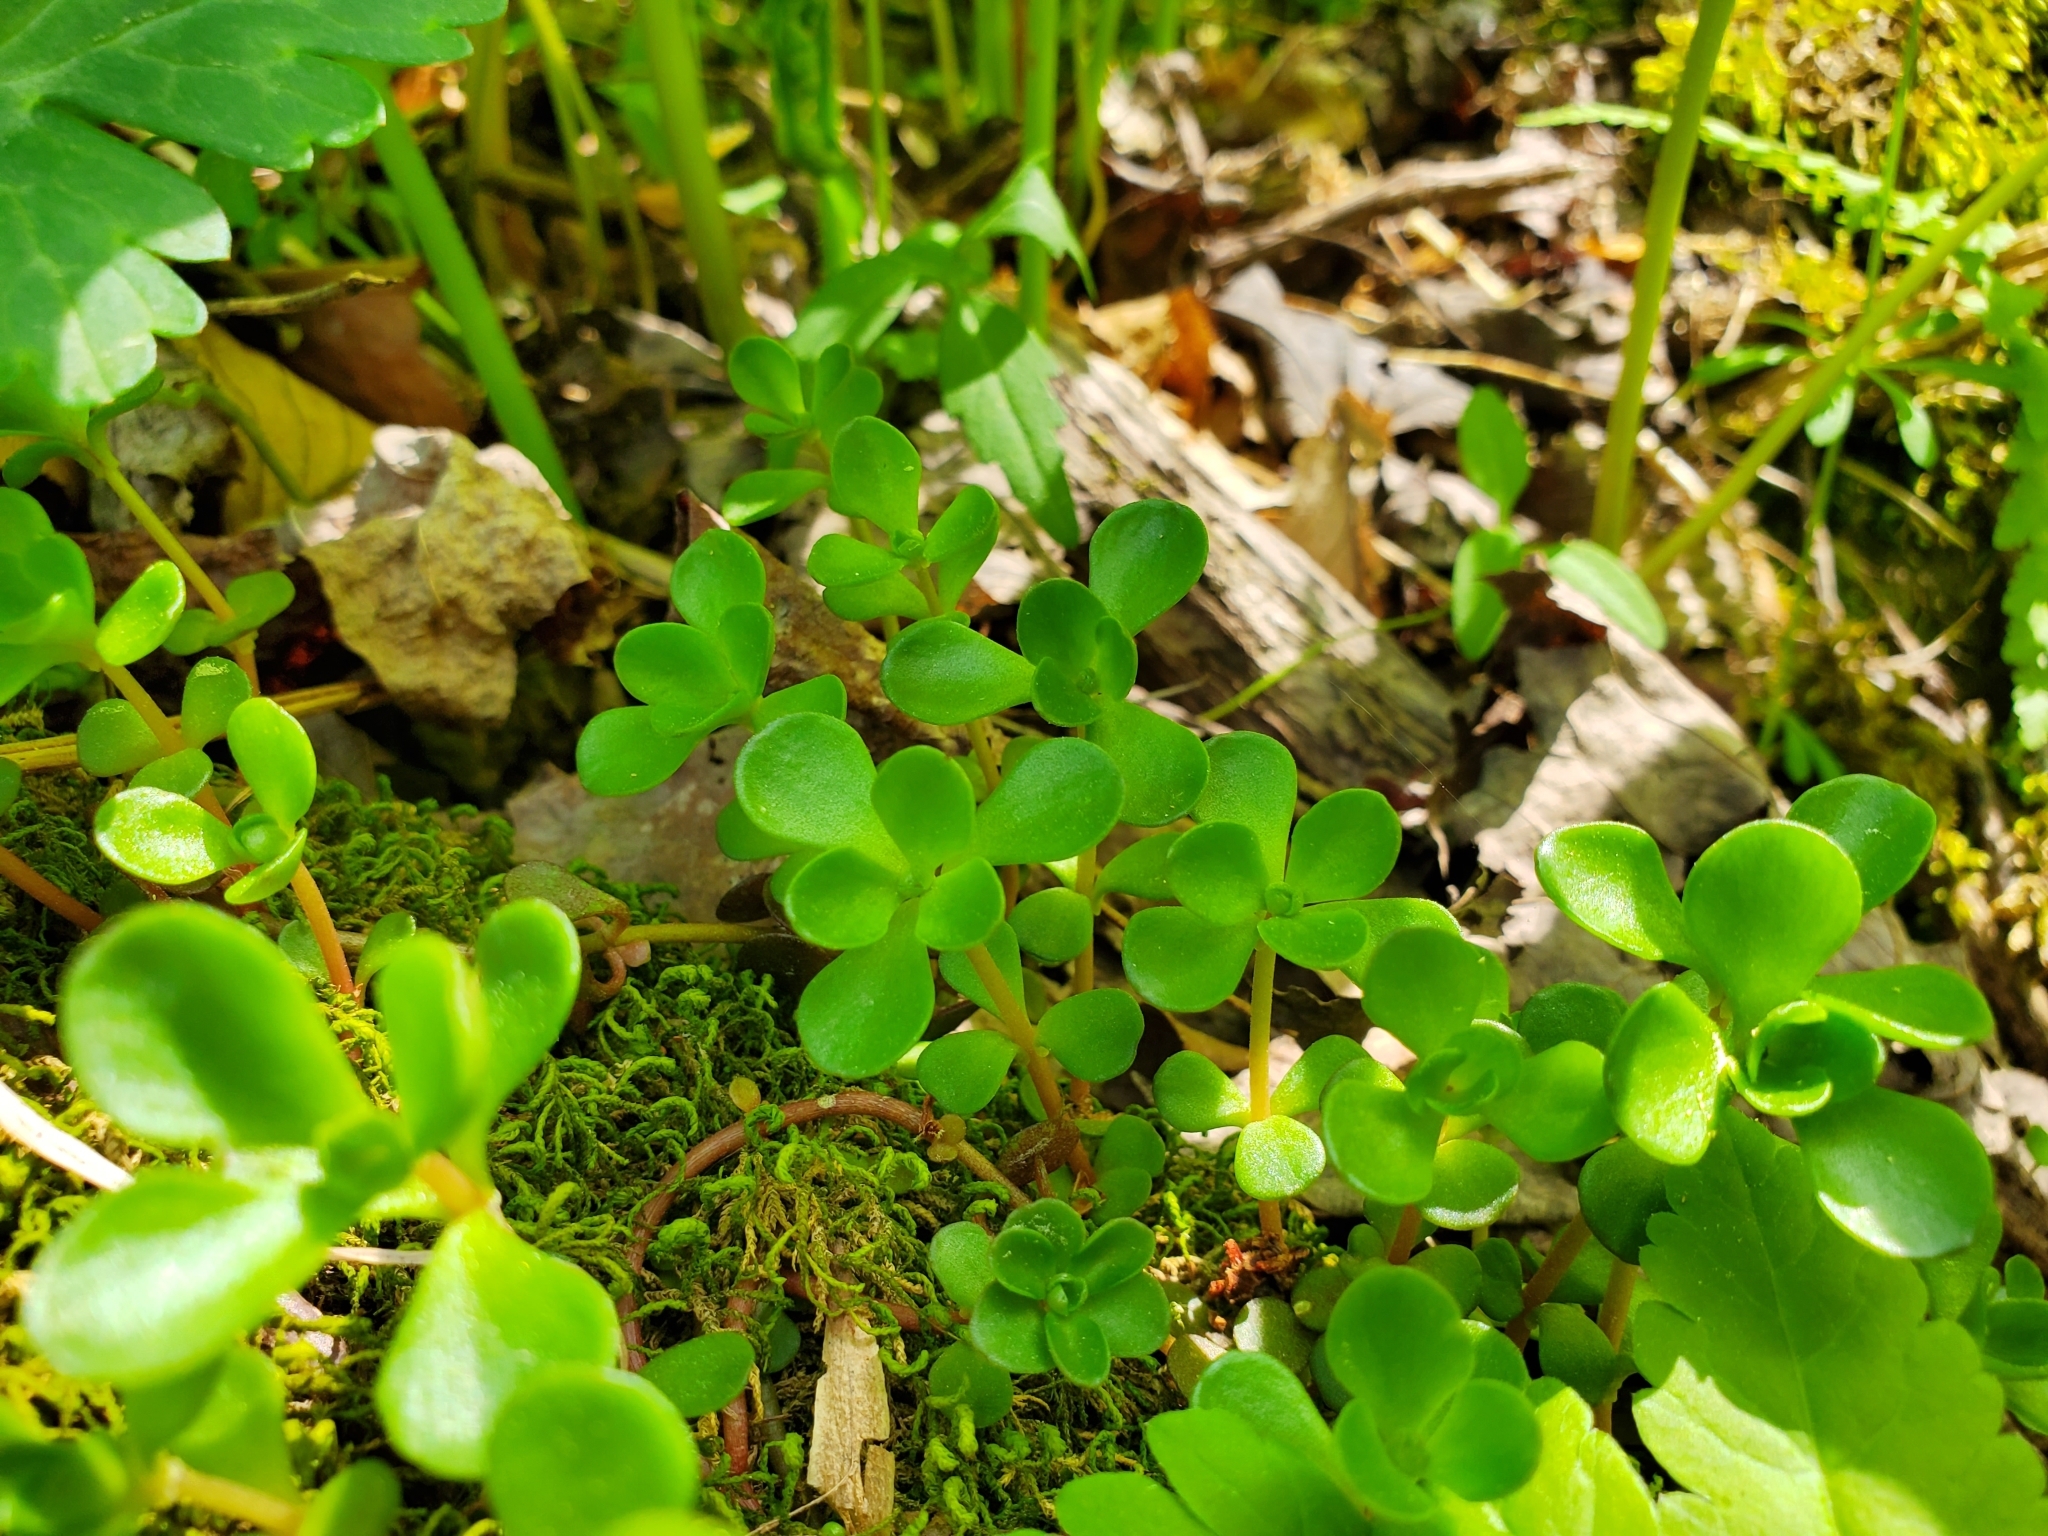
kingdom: Plantae
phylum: Tracheophyta
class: Magnoliopsida
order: Saxifragales
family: Crassulaceae
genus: Sedum
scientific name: Sedum ternatum
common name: Wild stonecrop
